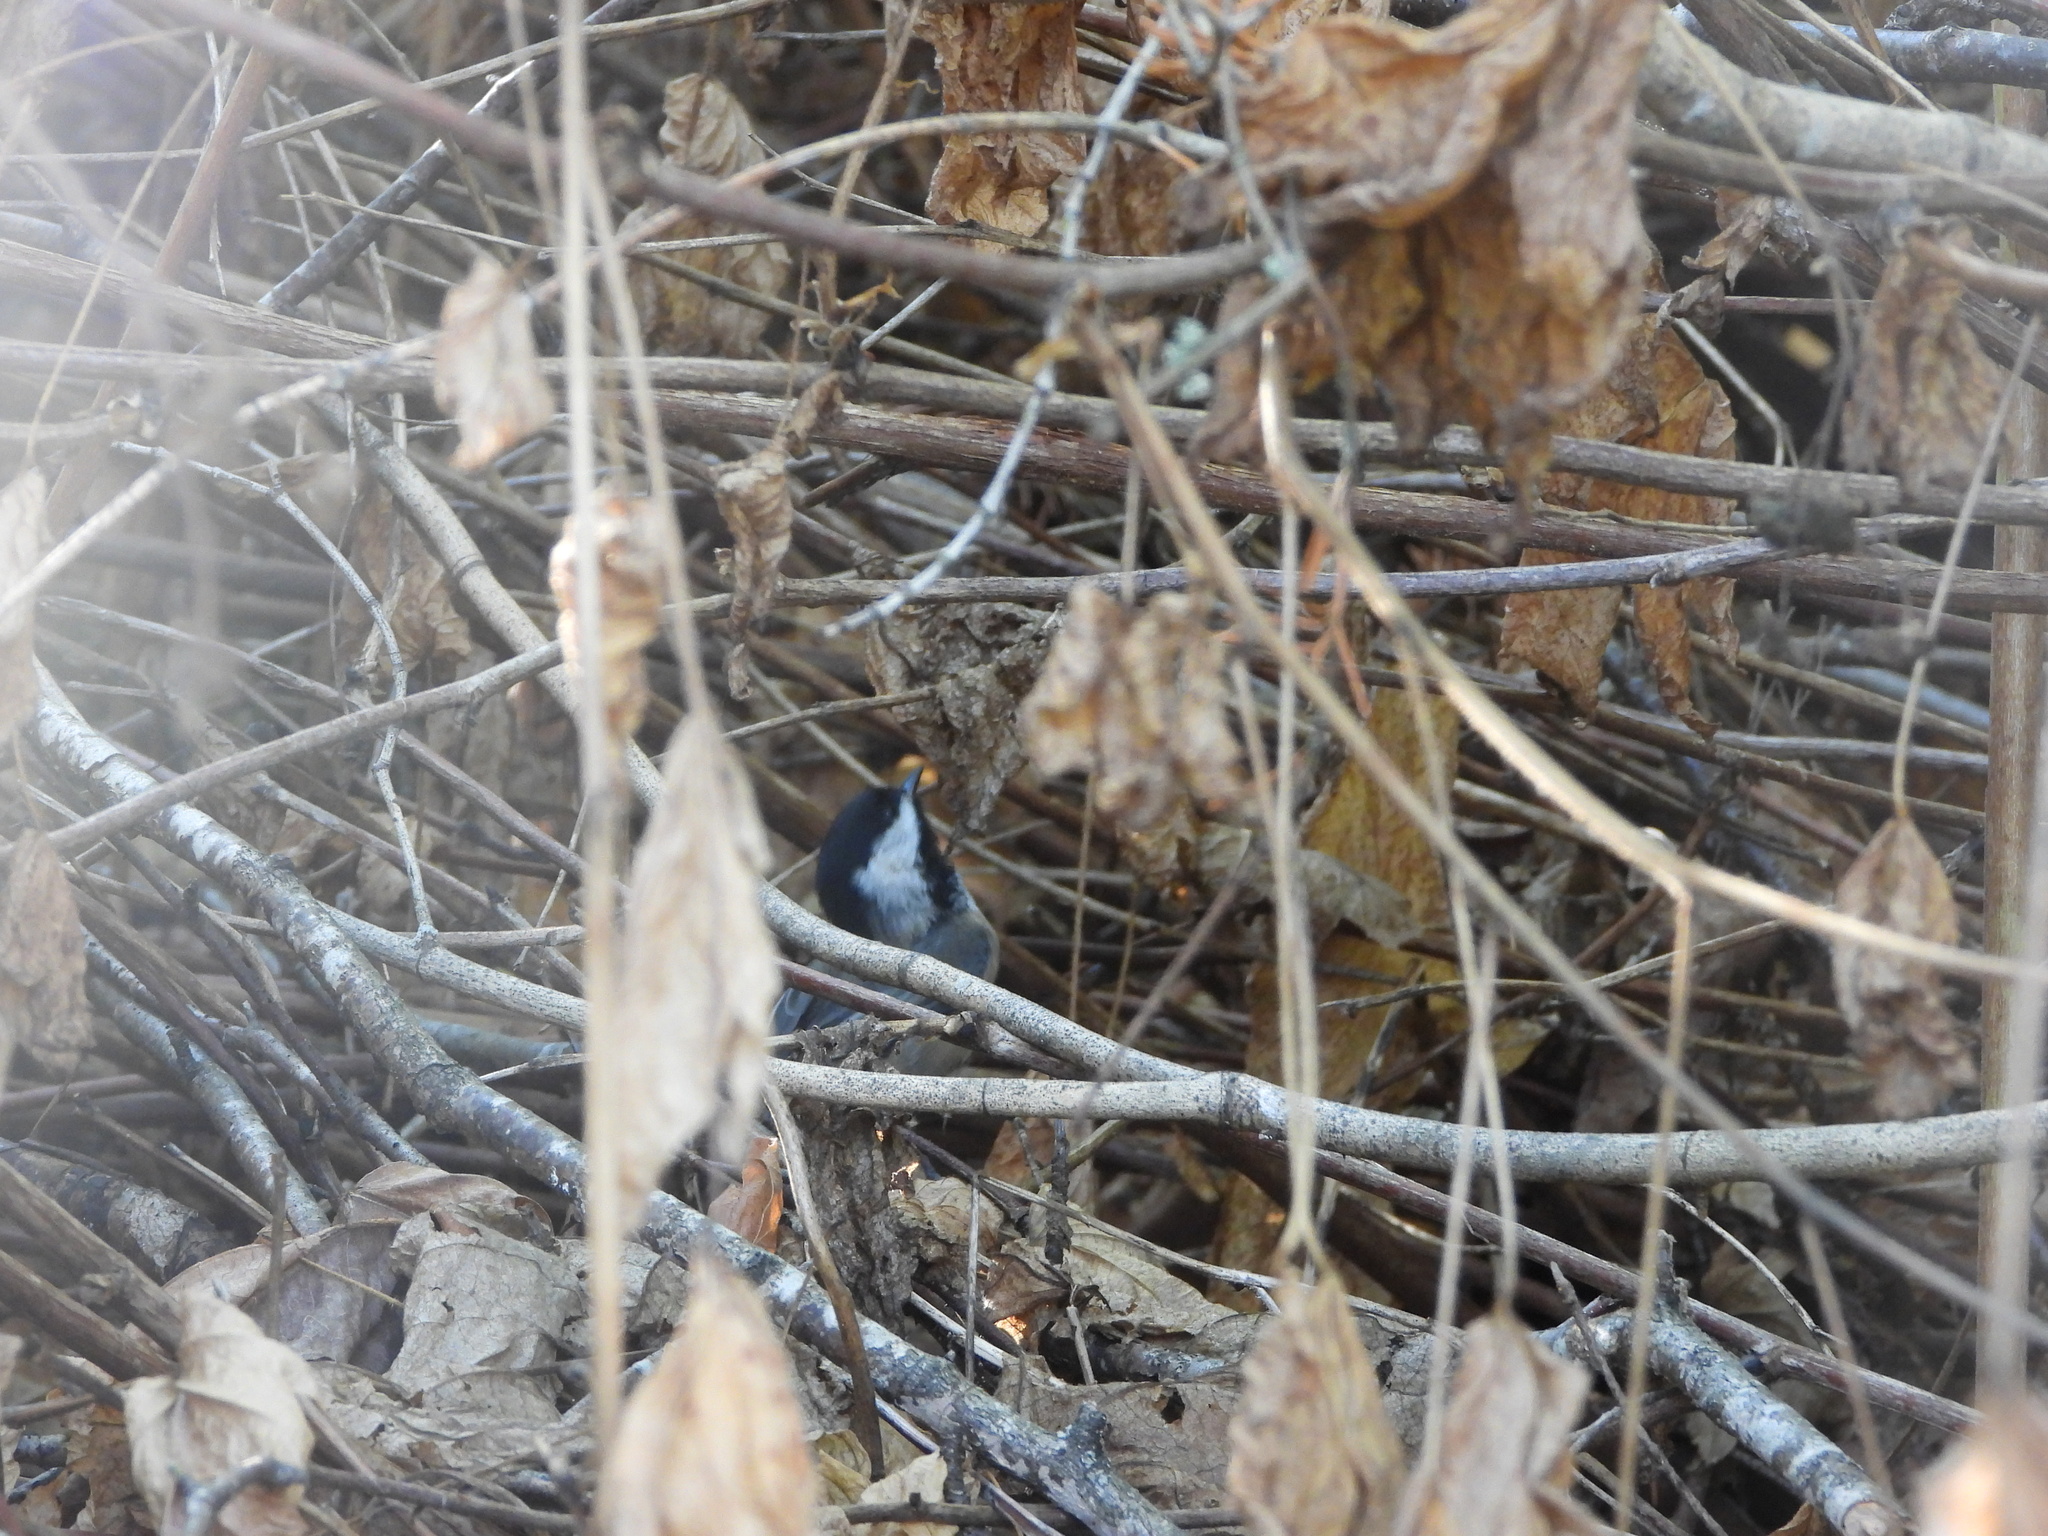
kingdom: Animalia
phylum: Chordata
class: Aves
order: Passeriformes
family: Paridae
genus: Poecile
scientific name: Poecile atricapillus
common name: Black-capped chickadee
